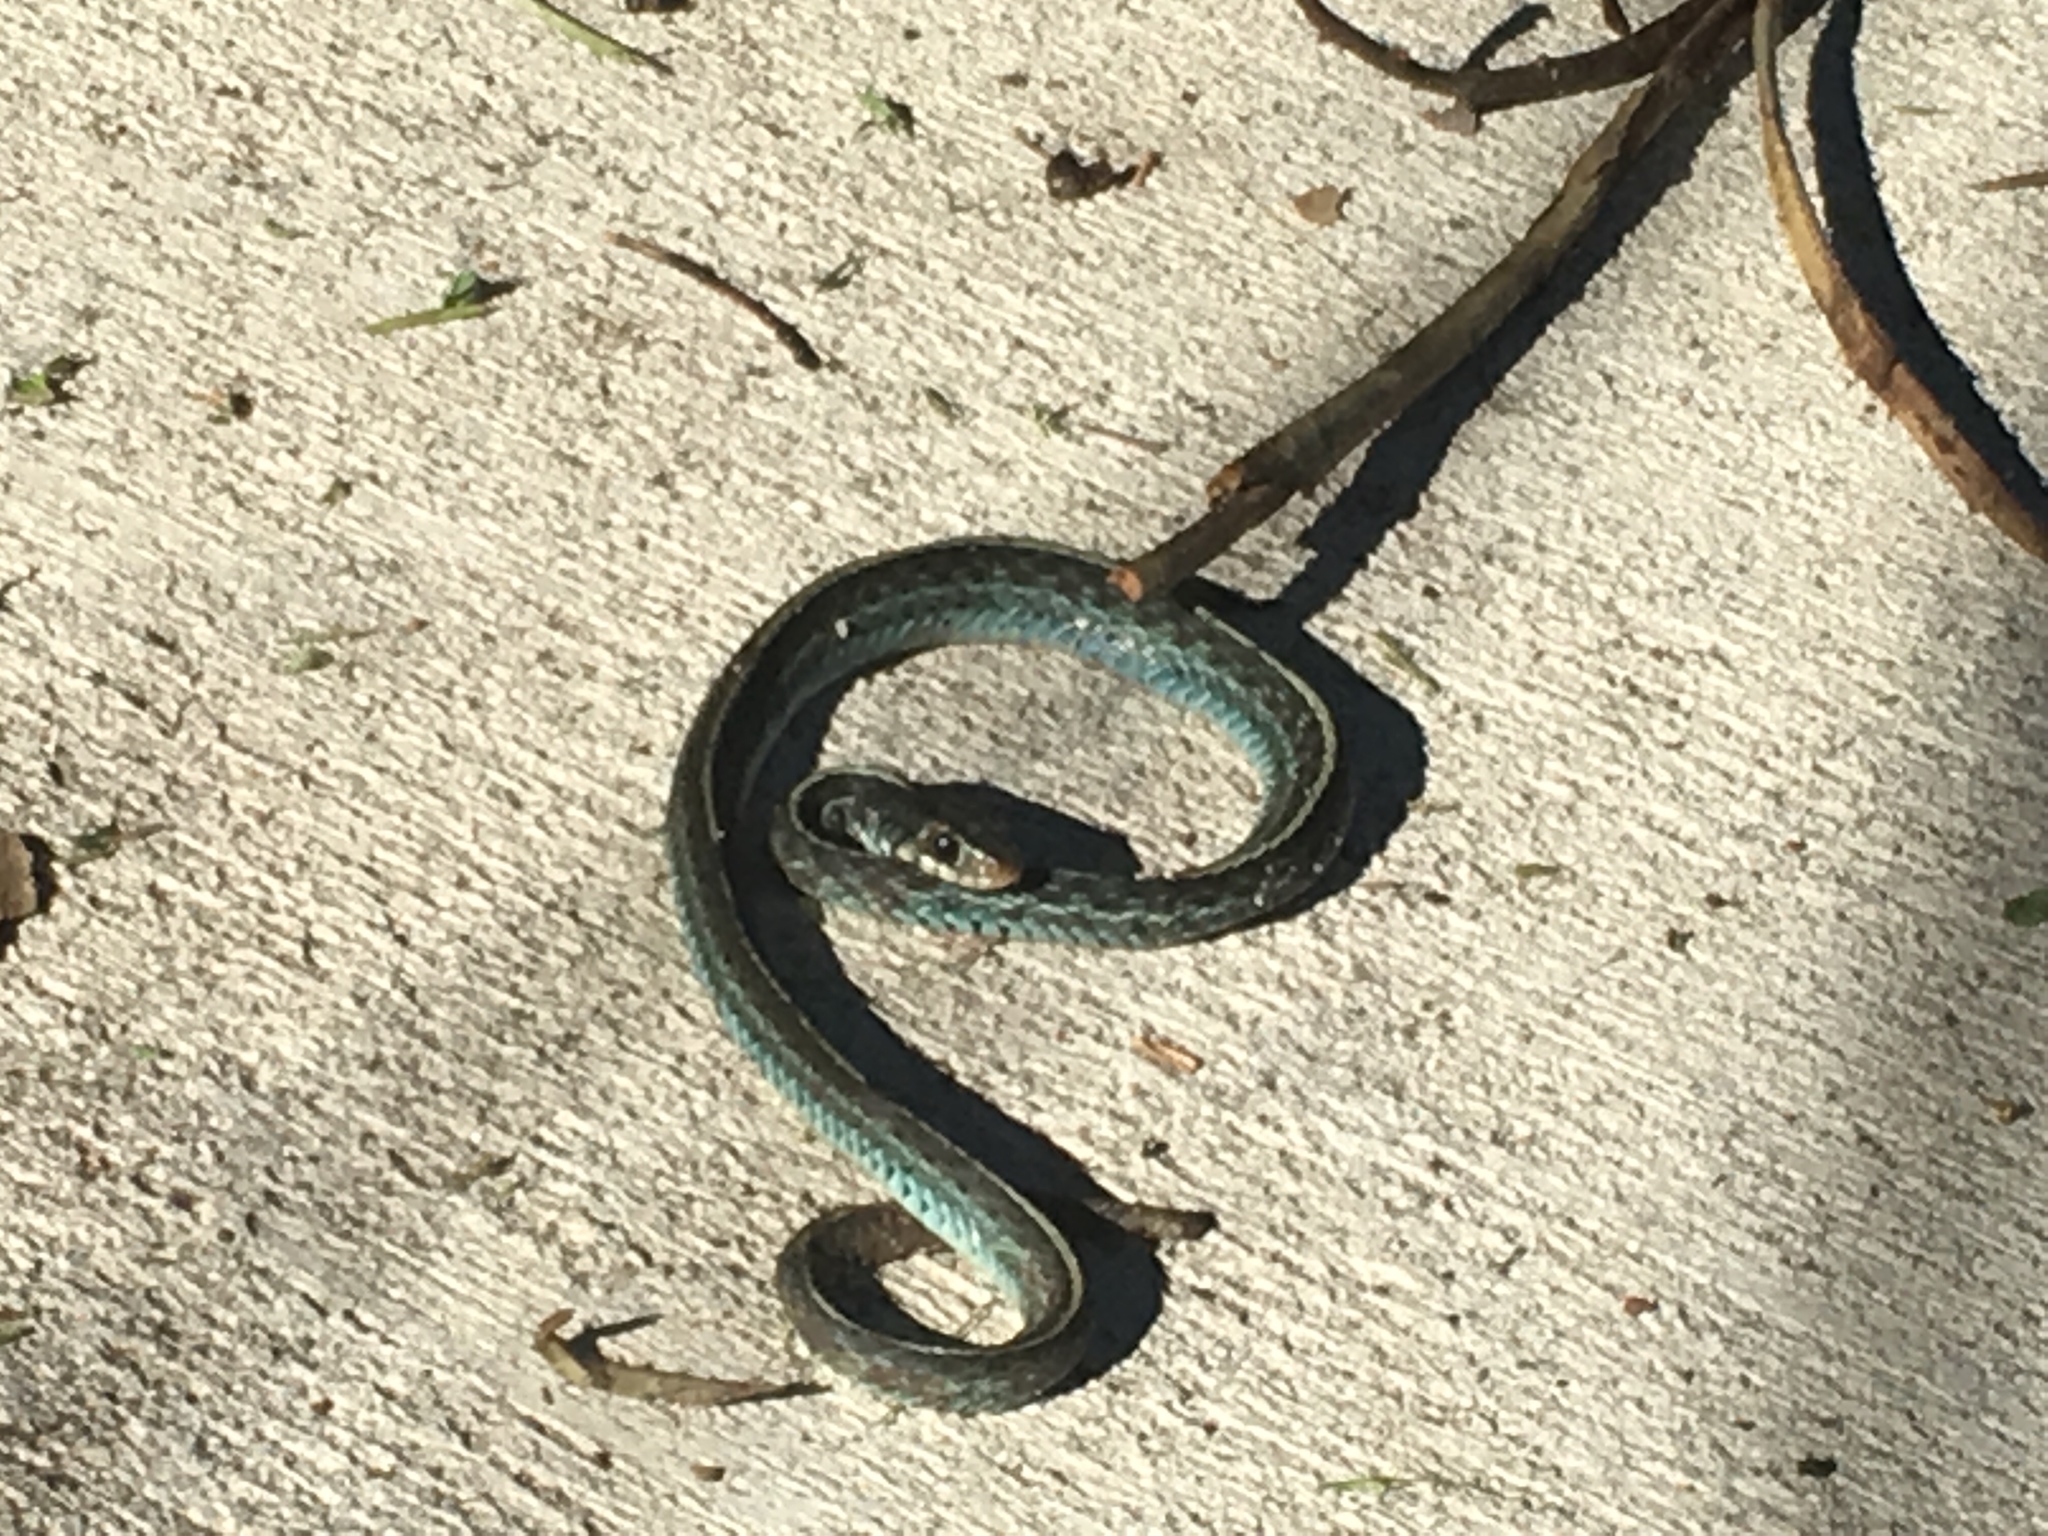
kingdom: Animalia
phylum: Chordata
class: Squamata
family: Colubridae
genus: Thamnophis
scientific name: Thamnophis sirtalis
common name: Common garter snake
